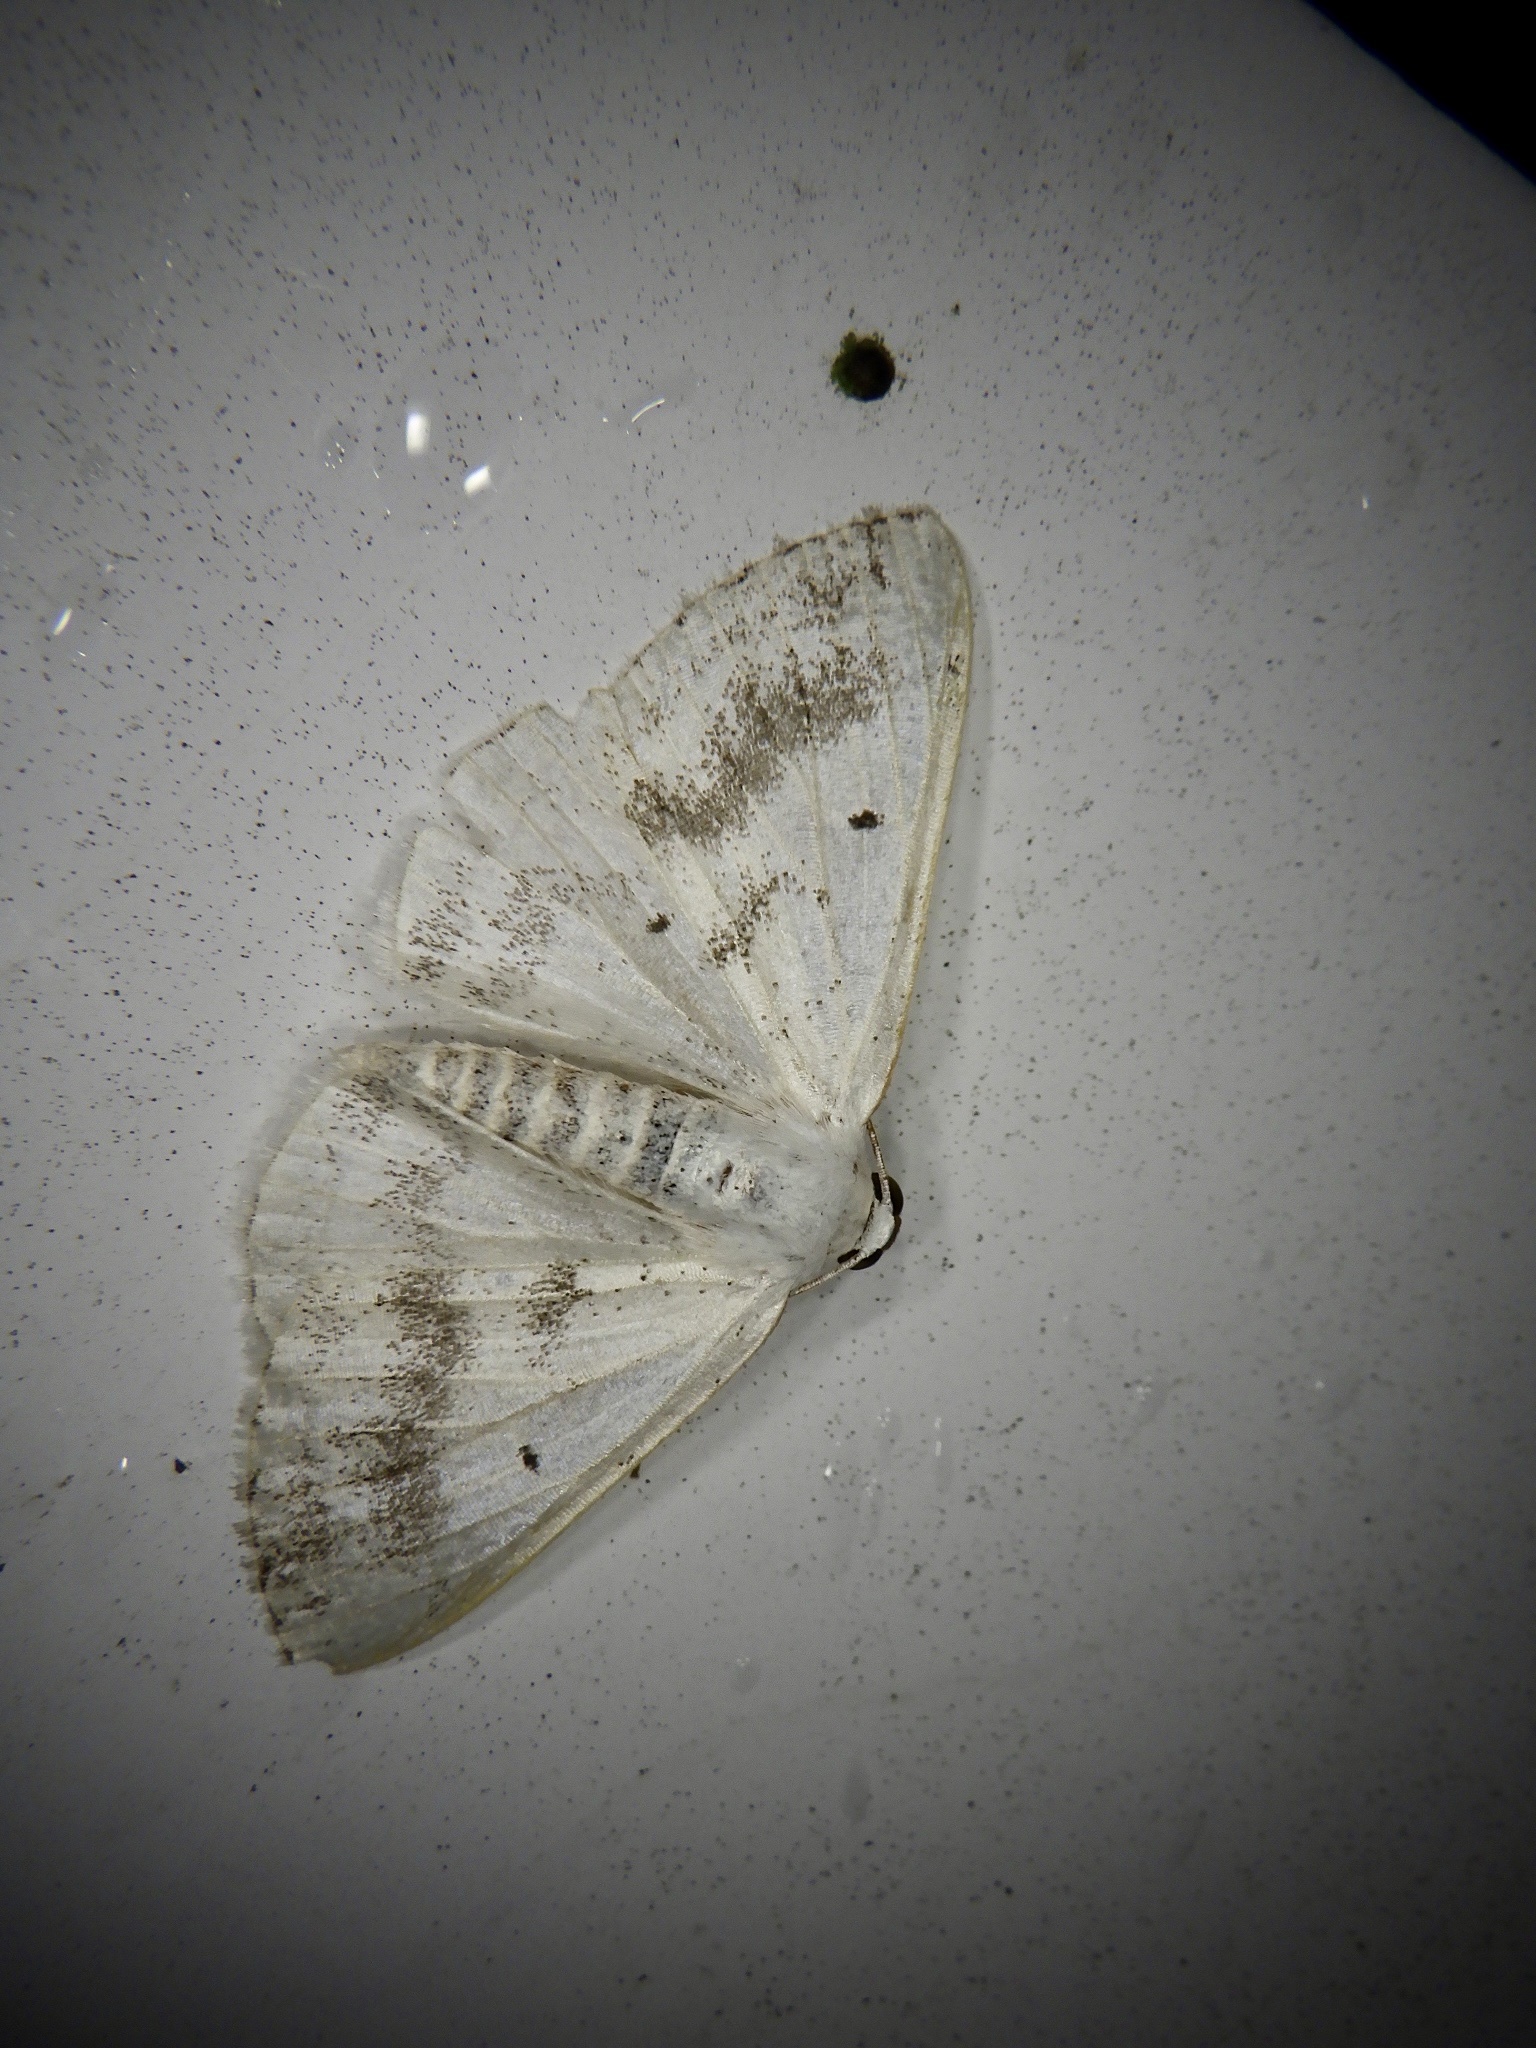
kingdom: Animalia
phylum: Arthropoda
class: Insecta
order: Lepidoptera
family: Geometridae
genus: Lomographa
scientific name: Lomographa temerata
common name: Clouded silver
